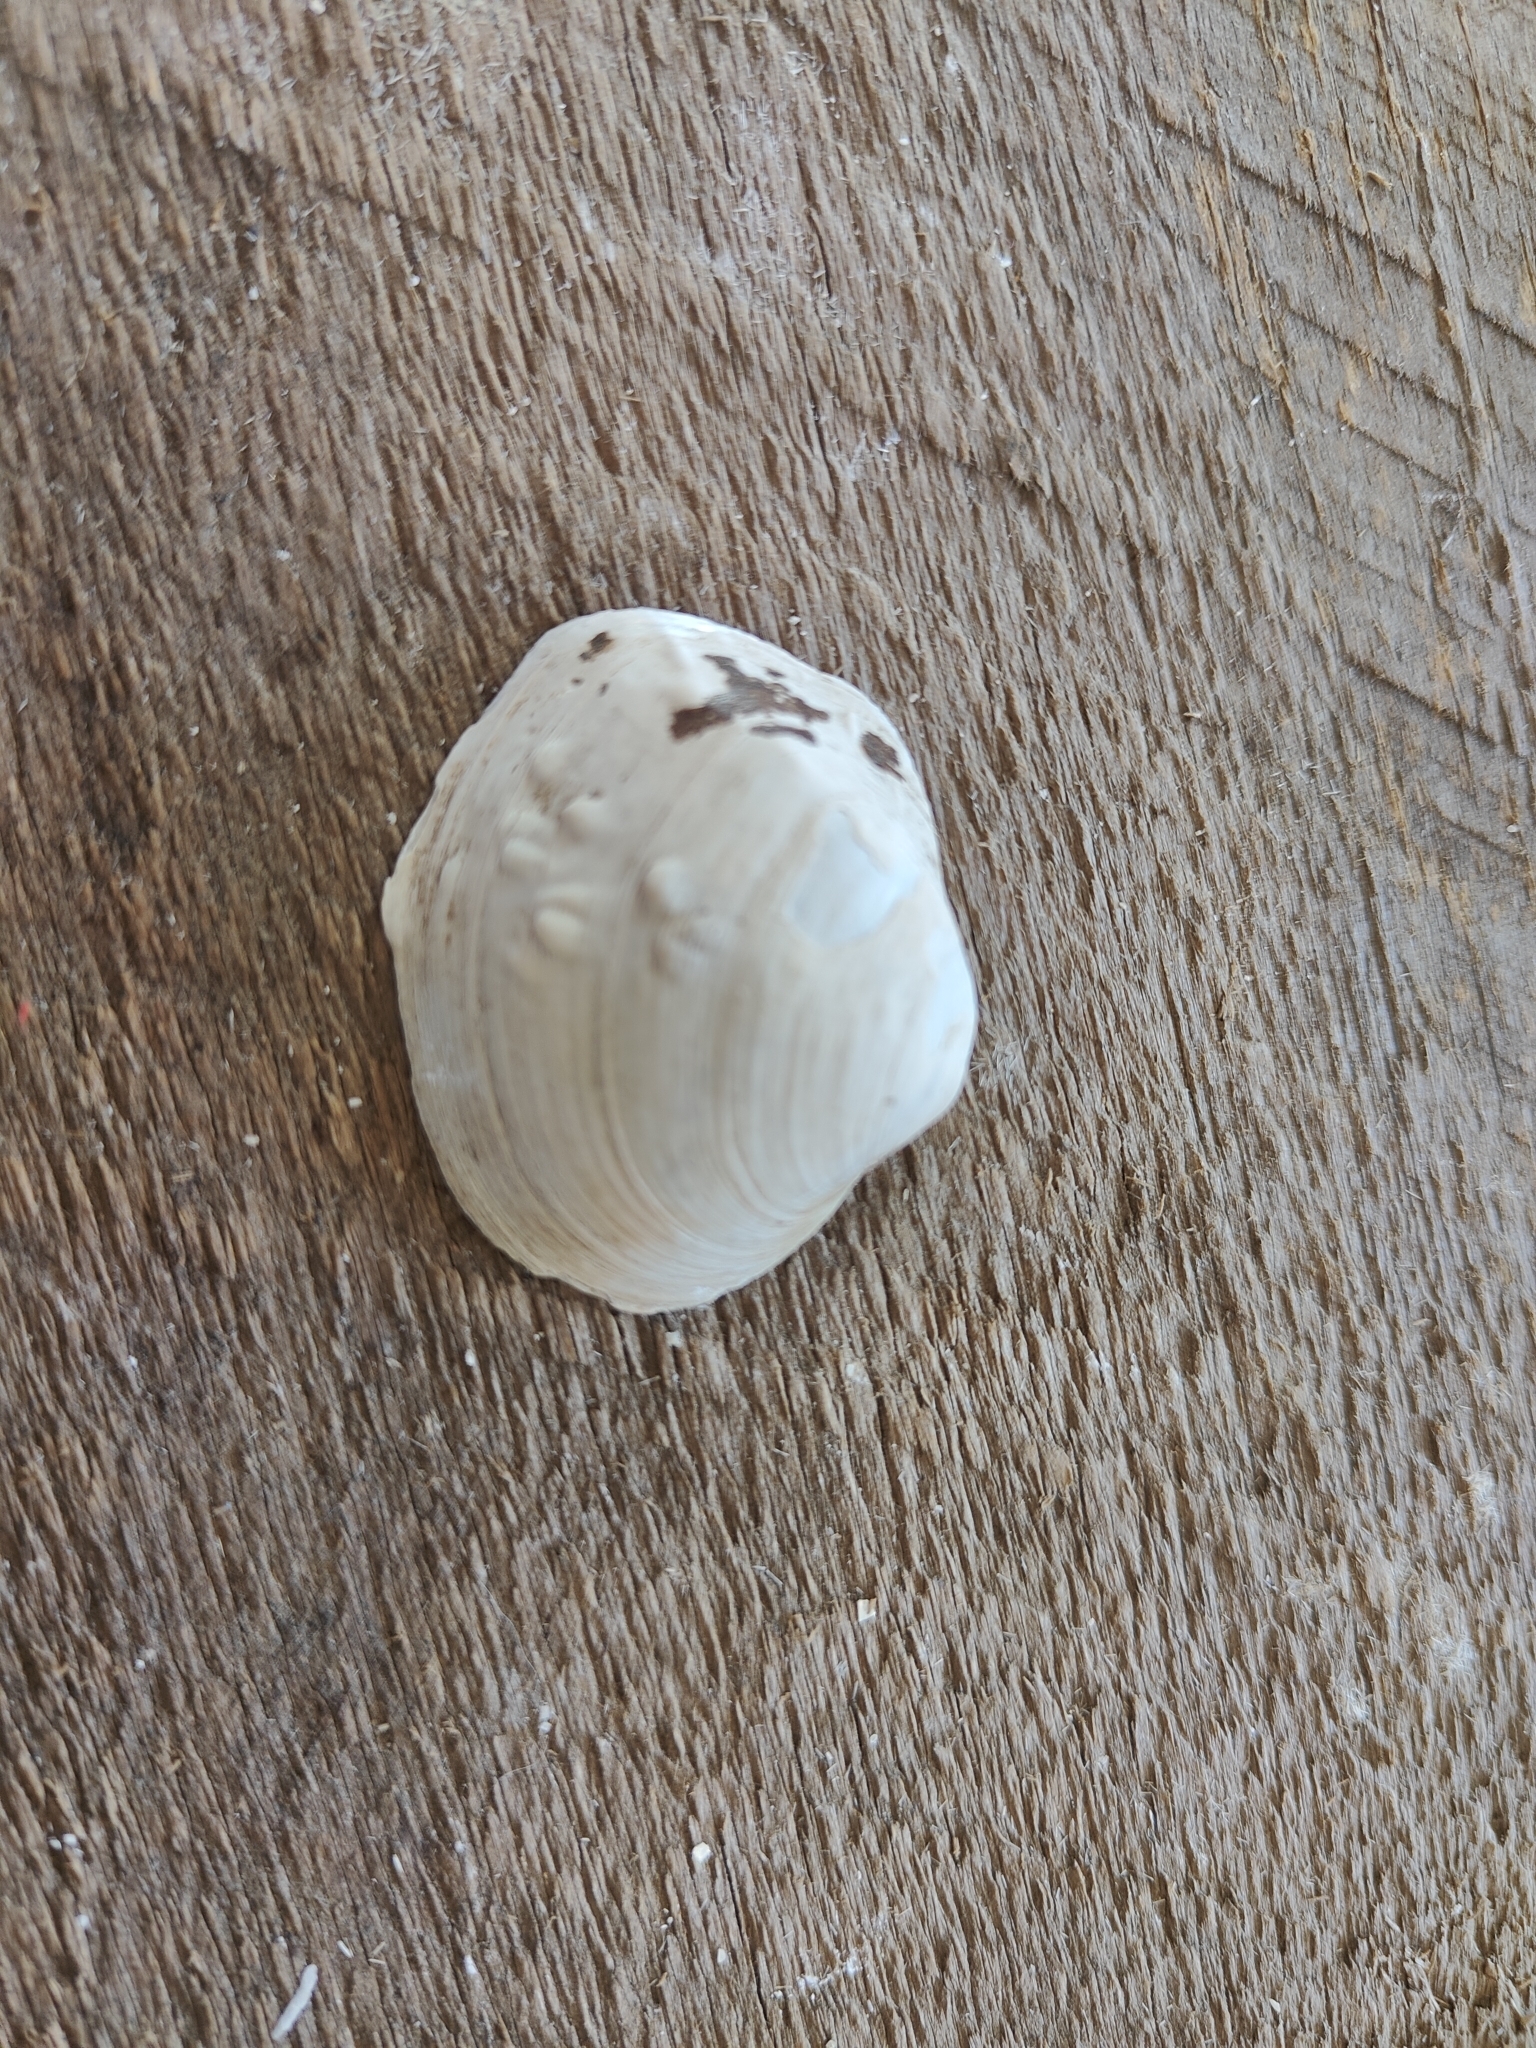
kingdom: Animalia
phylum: Mollusca
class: Bivalvia
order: Unionida
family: Unionidae
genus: Cyclonaias
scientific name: Cyclonaias pustulosa
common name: Pimpleback
